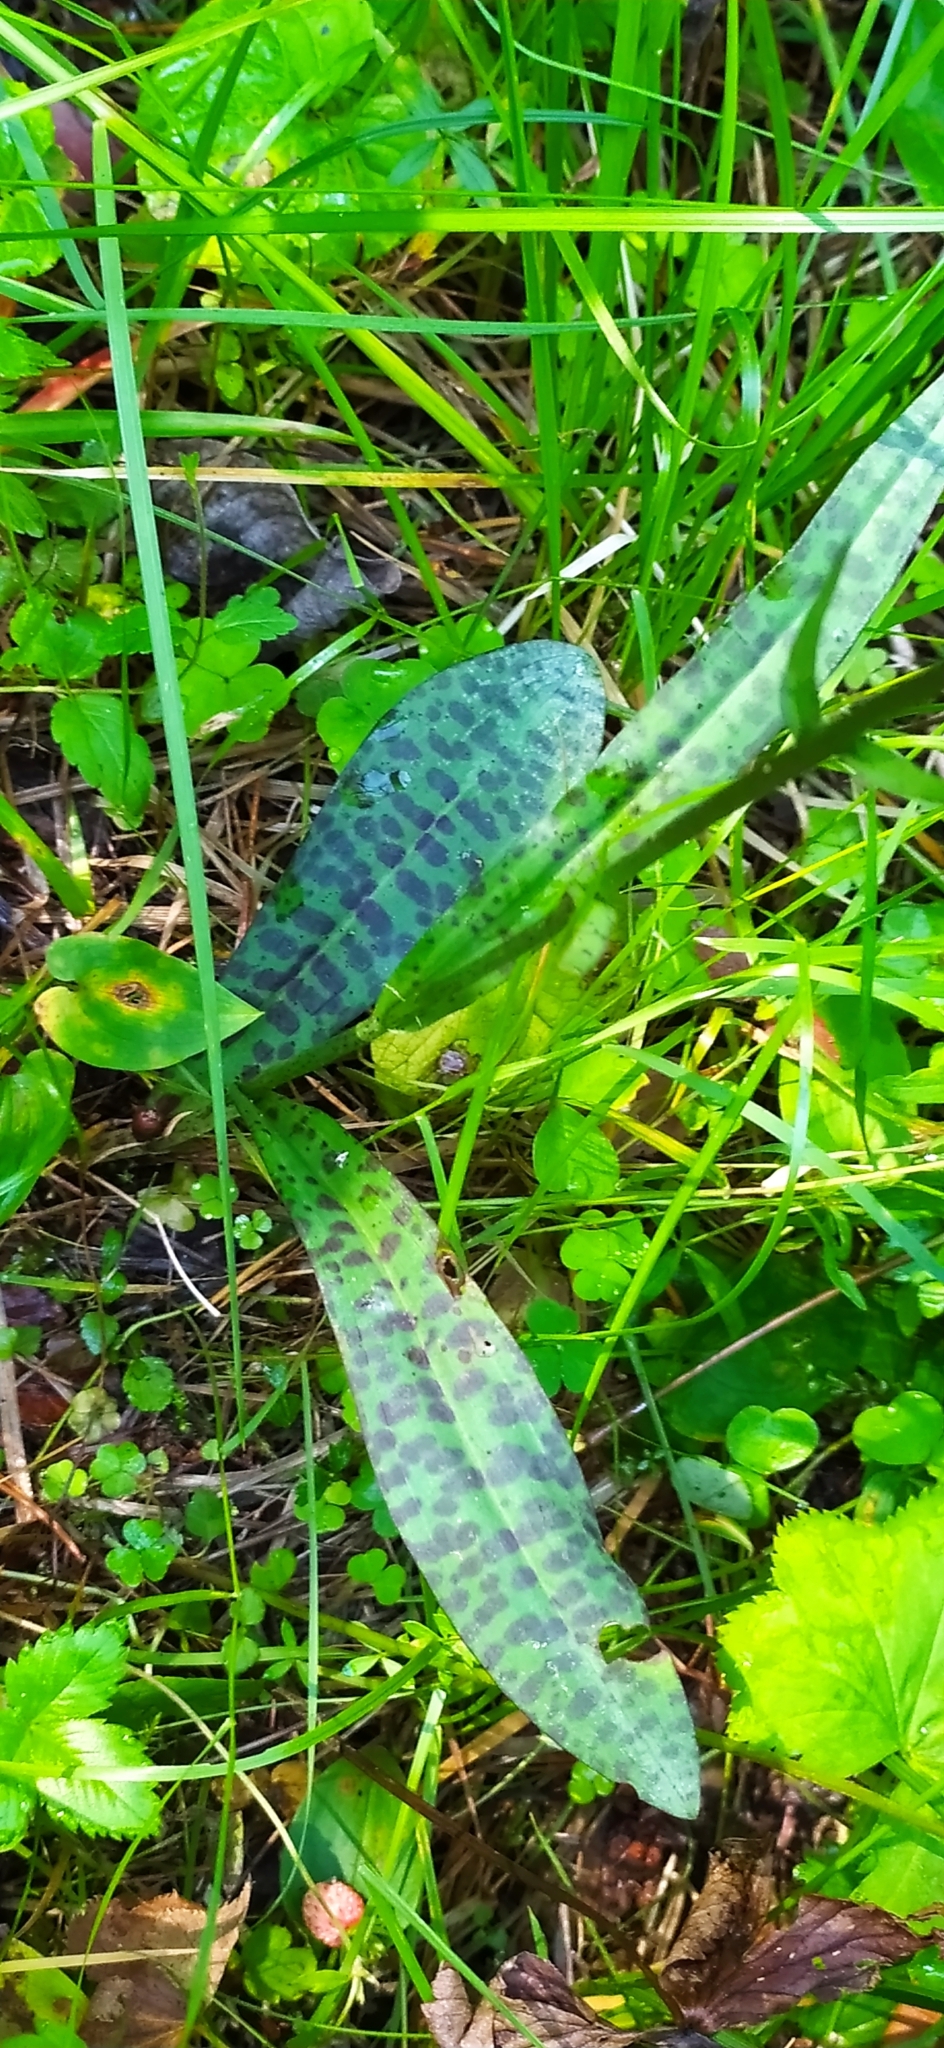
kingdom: Plantae
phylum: Tracheophyta
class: Liliopsida
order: Asparagales
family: Orchidaceae
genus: Dactylorhiza
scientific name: Dactylorhiza maculata
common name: Heath spotted-orchid
